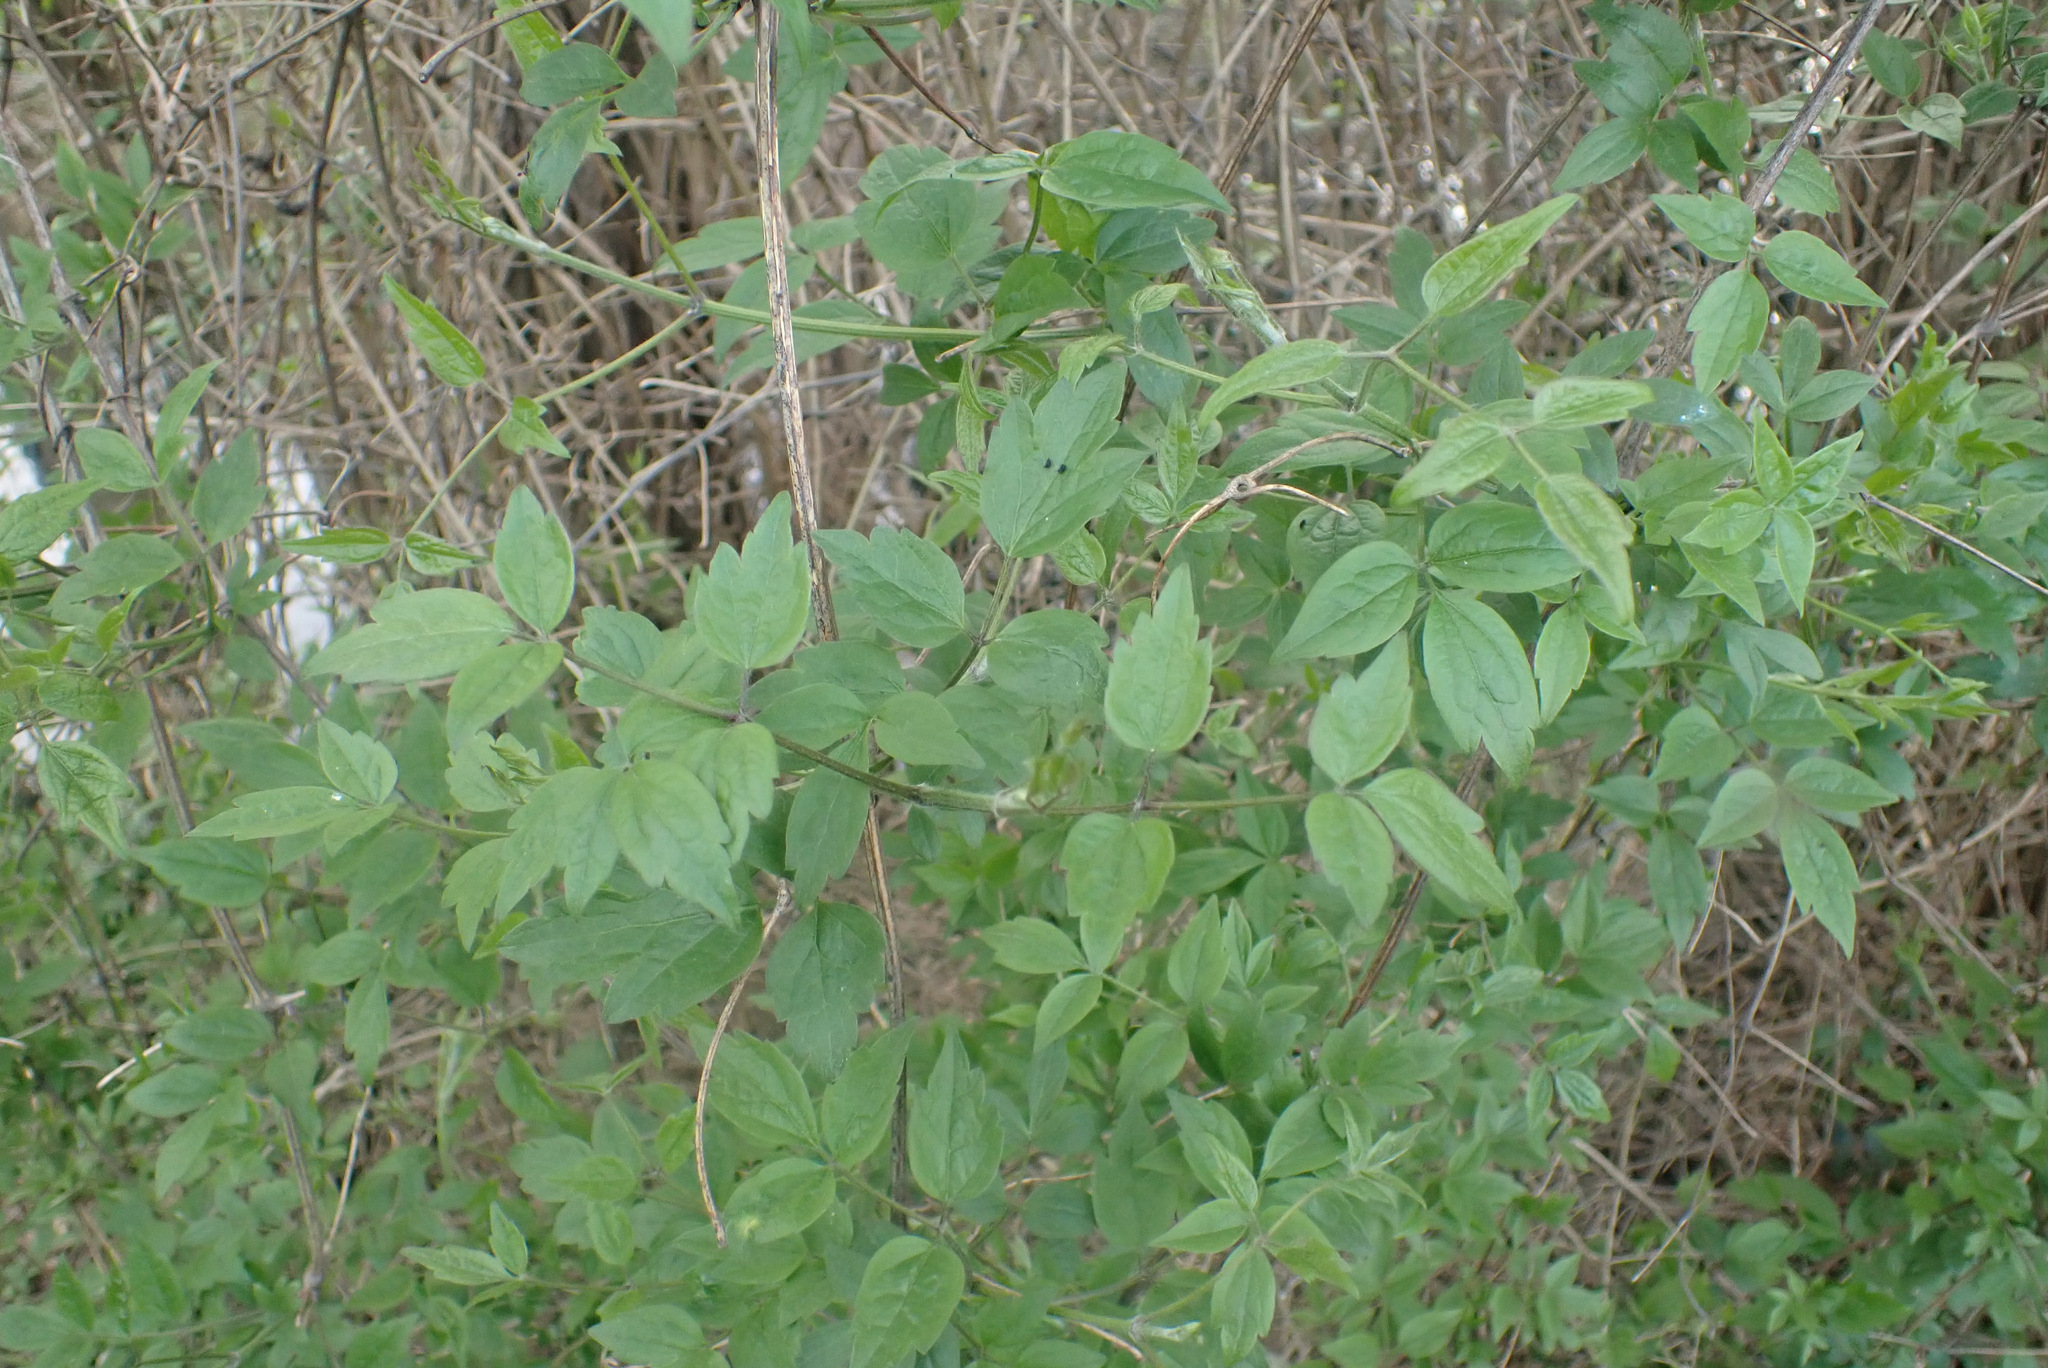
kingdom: Plantae
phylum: Tracheophyta
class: Magnoliopsida
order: Ranunculales
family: Ranunculaceae
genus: Clematis
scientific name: Clematis vitalba
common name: Evergreen clematis
